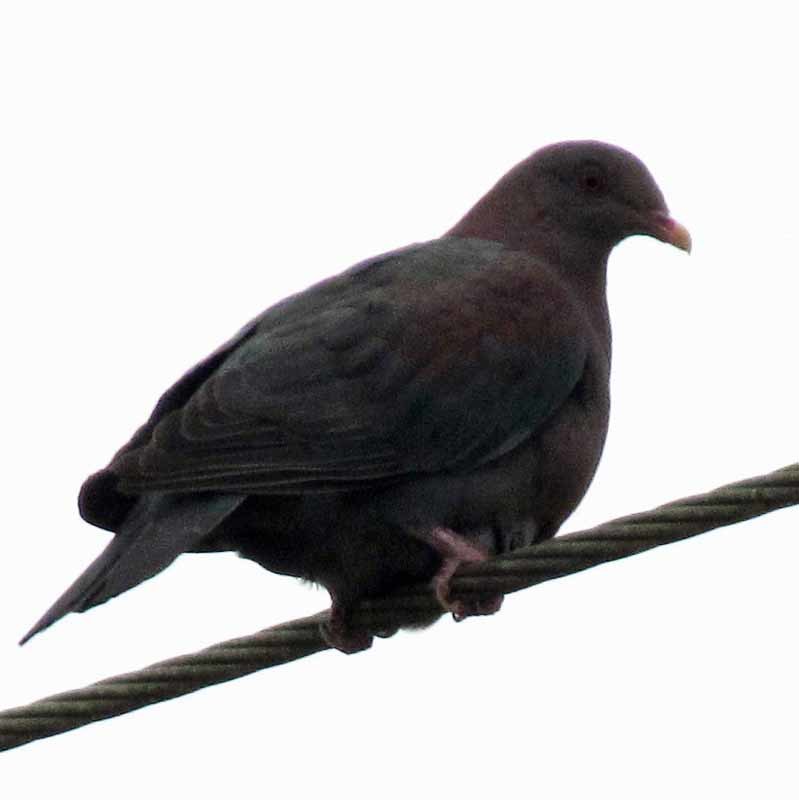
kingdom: Animalia
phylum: Chordata
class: Aves
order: Columbiformes
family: Columbidae
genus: Patagioenas
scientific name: Patagioenas flavirostris
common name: Red-billed pigeon
